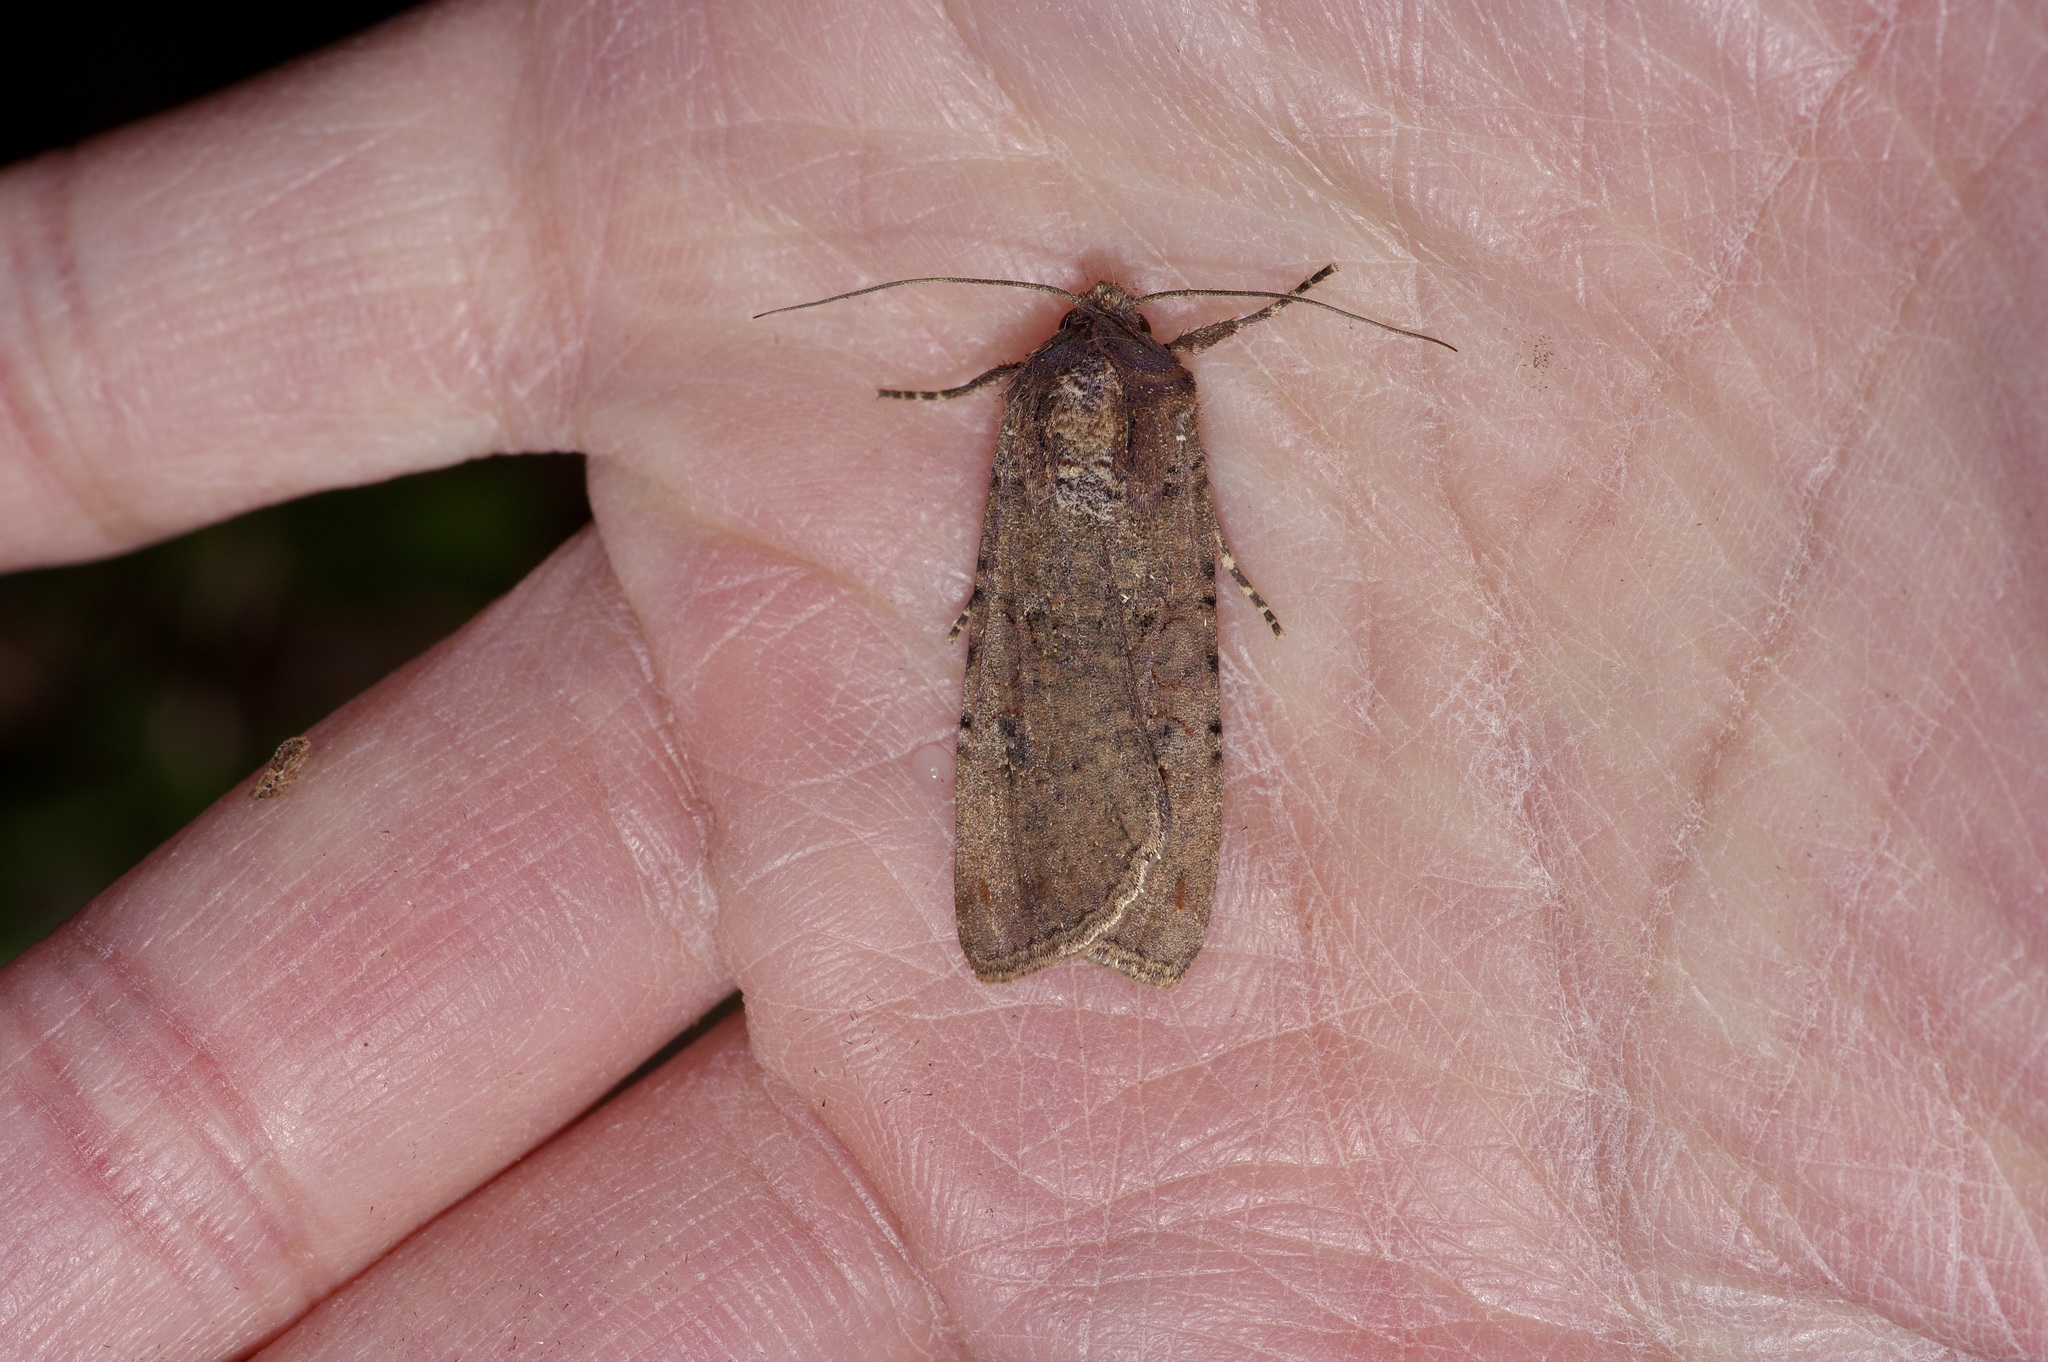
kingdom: Animalia
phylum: Arthropoda
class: Insecta
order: Lepidoptera
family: Noctuidae
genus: Peridroma
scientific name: Peridroma saucia
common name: Pearly underwing
